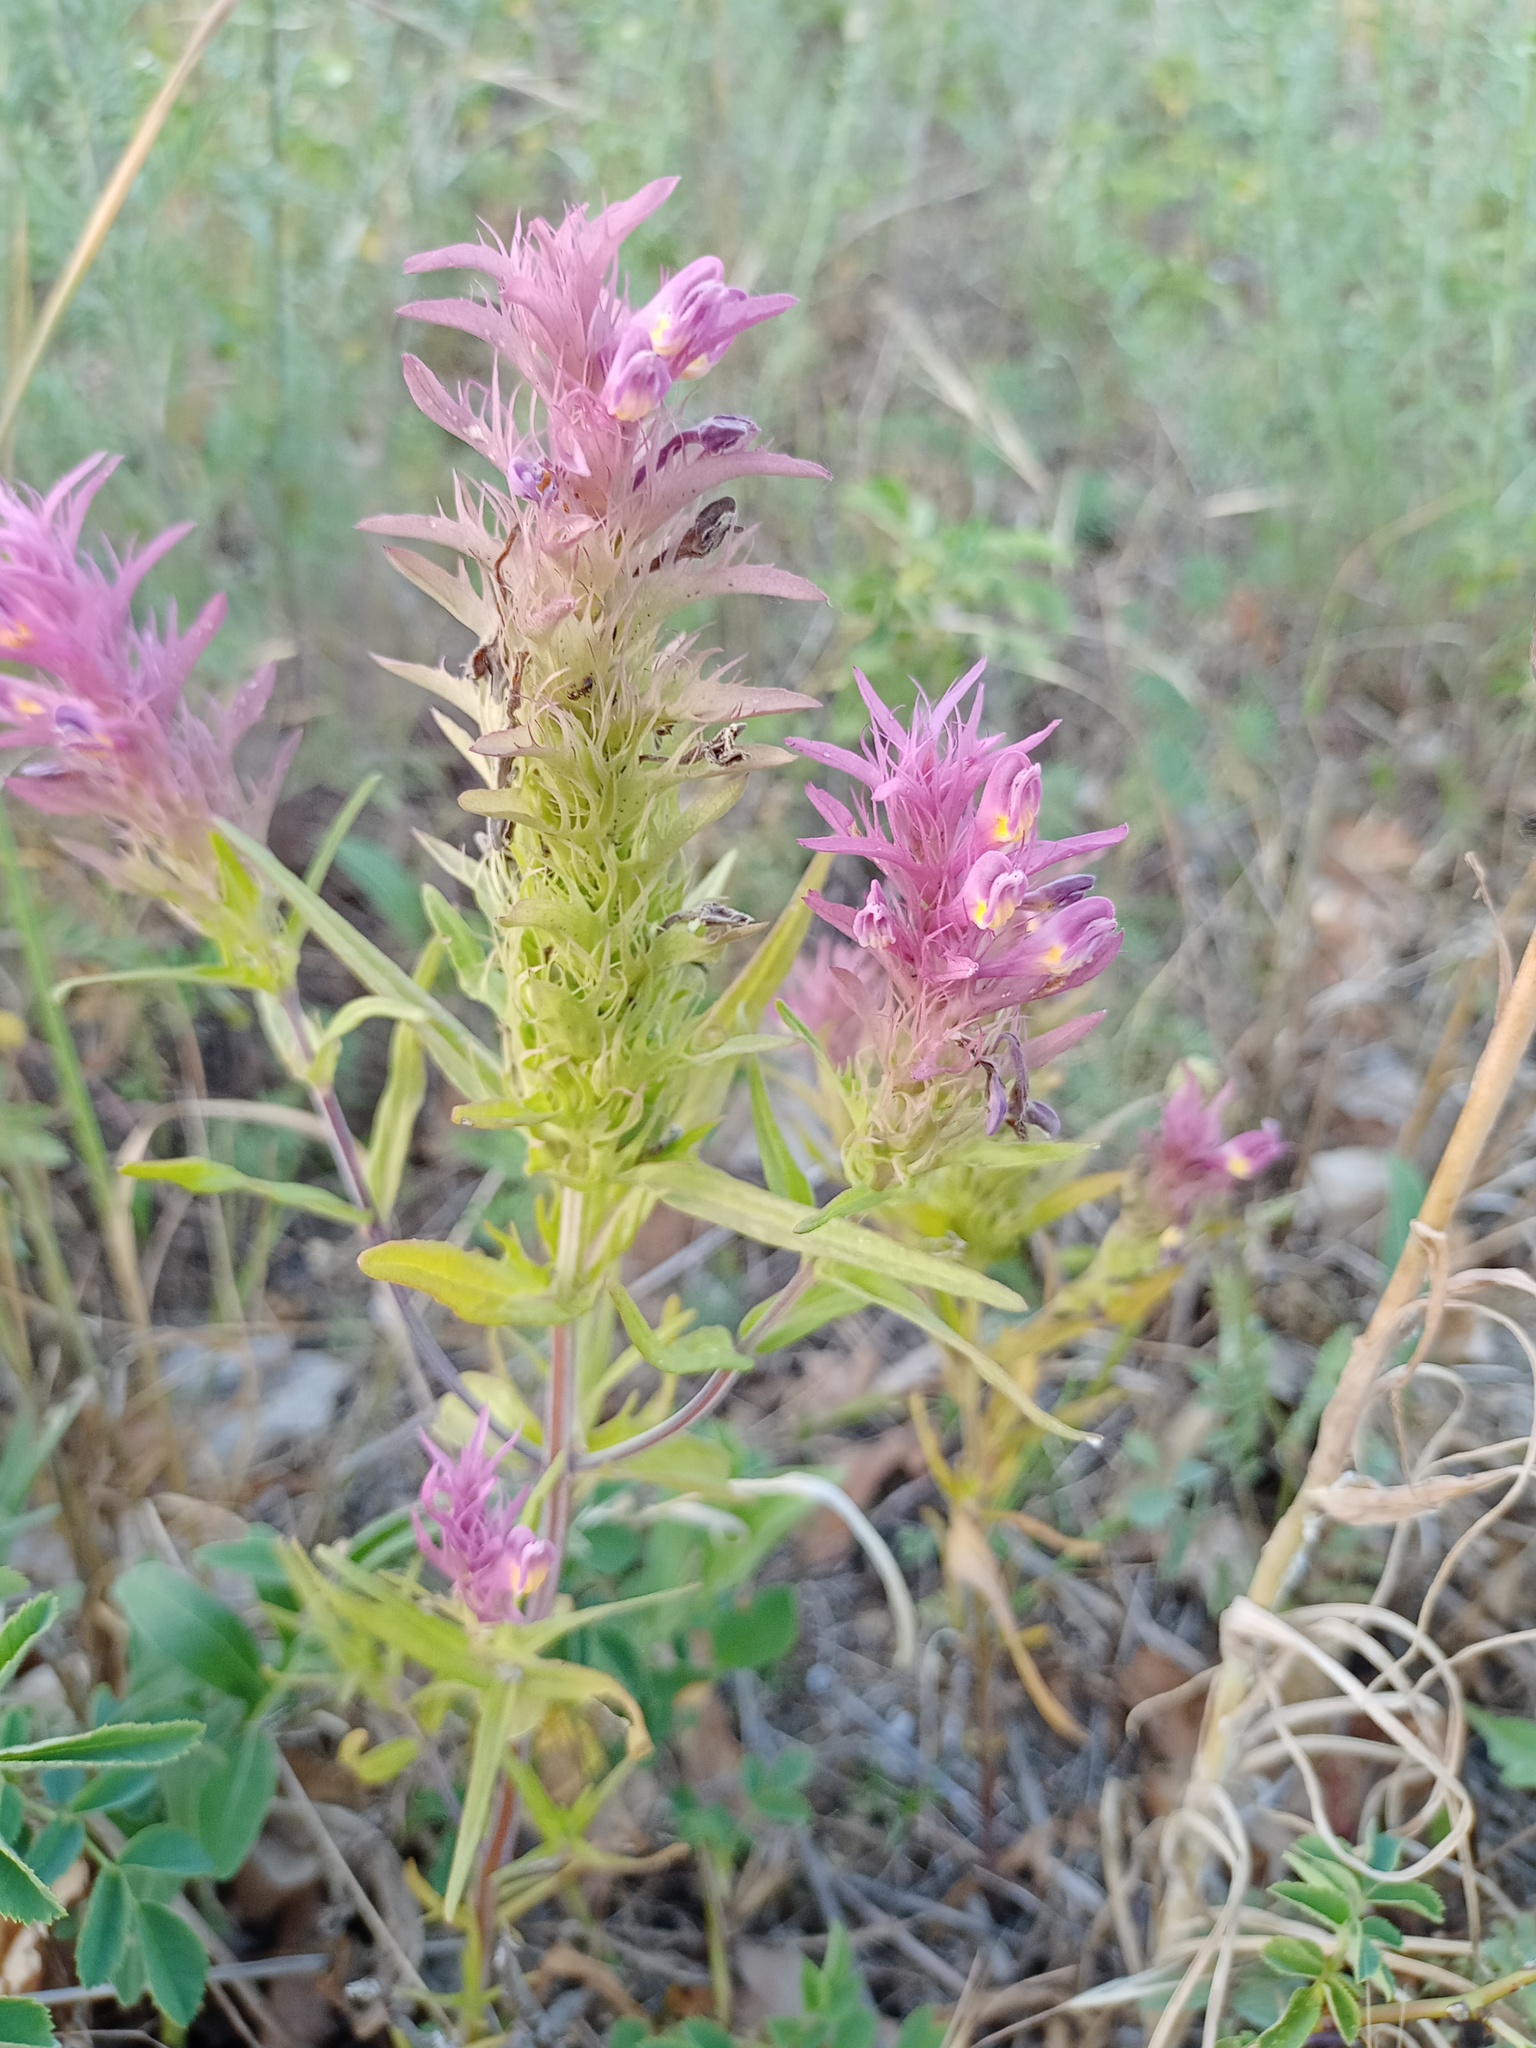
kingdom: Plantae
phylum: Tracheophyta
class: Magnoliopsida
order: Lamiales
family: Orobanchaceae
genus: Melampyrum
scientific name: Melampyrum arvense
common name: Field cow-wheat
